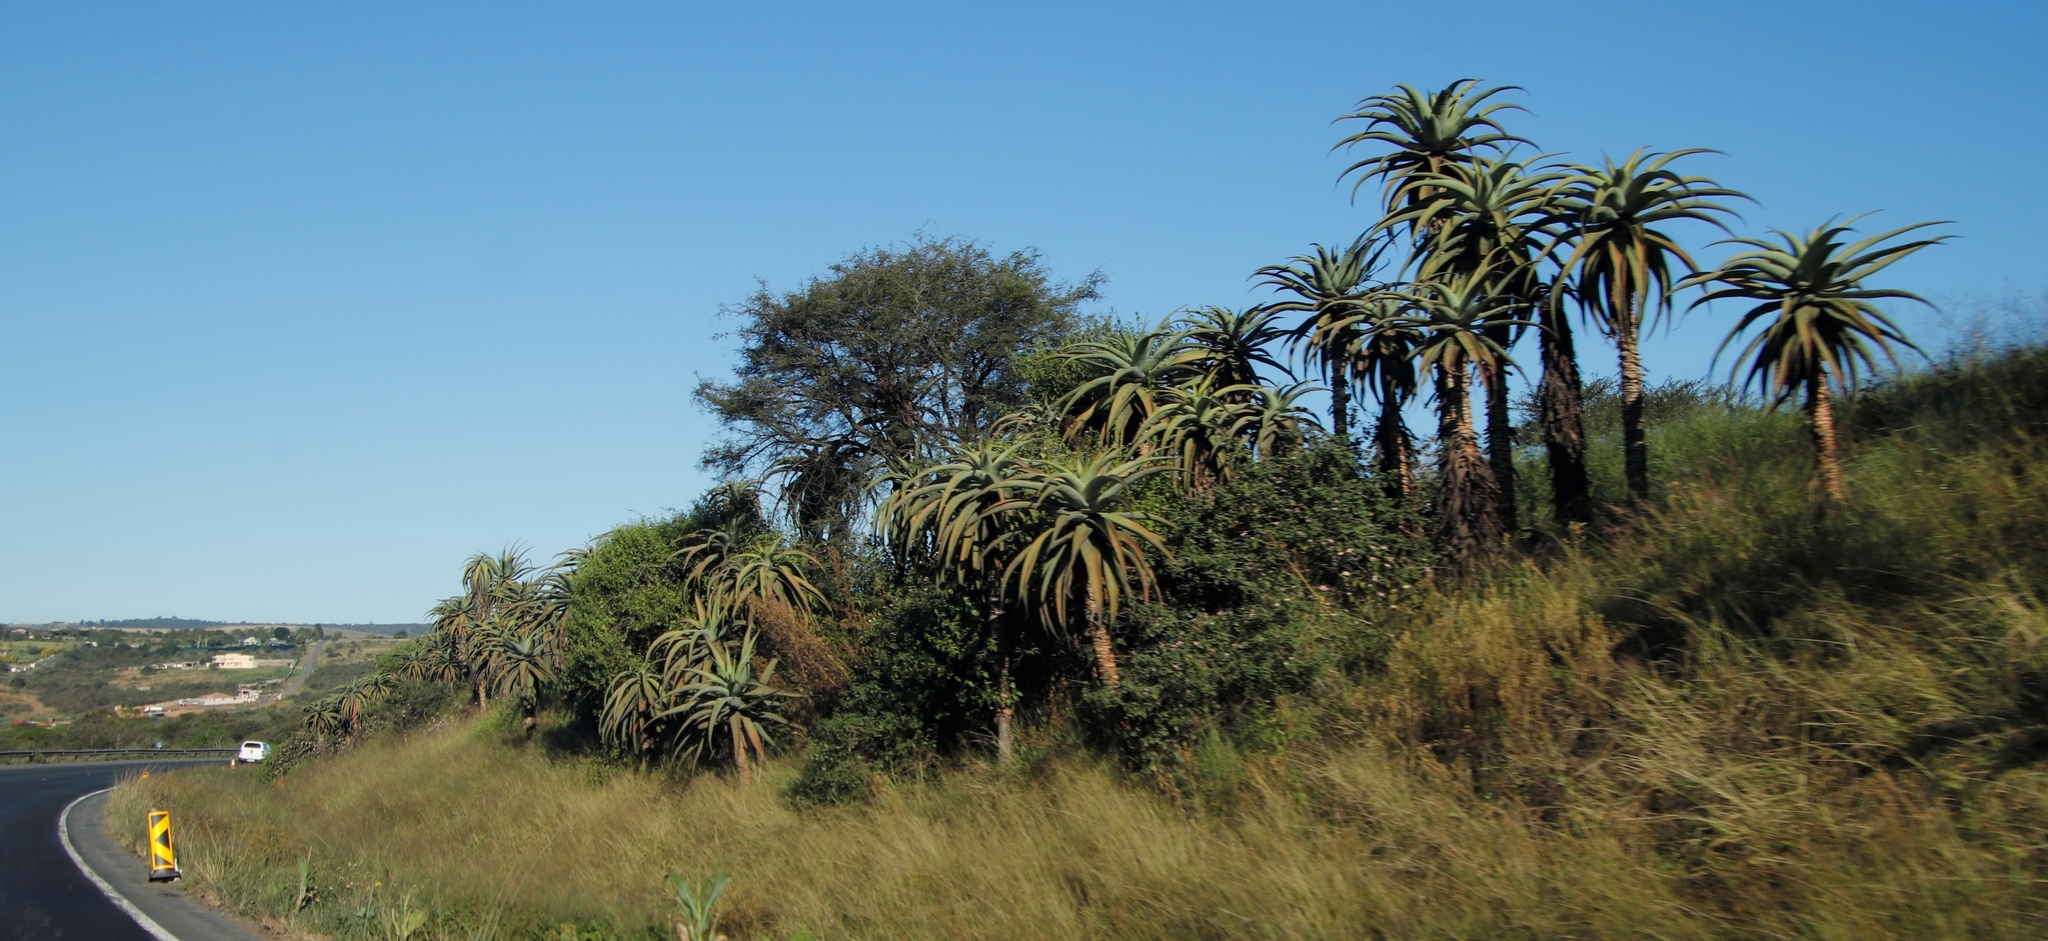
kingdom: Plantae
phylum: Tracheophyta
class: Liliopsida
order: Asparagales
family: Asphodelaceae
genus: Aloe
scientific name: Aloe candelabrum
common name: Candelabra aloe
